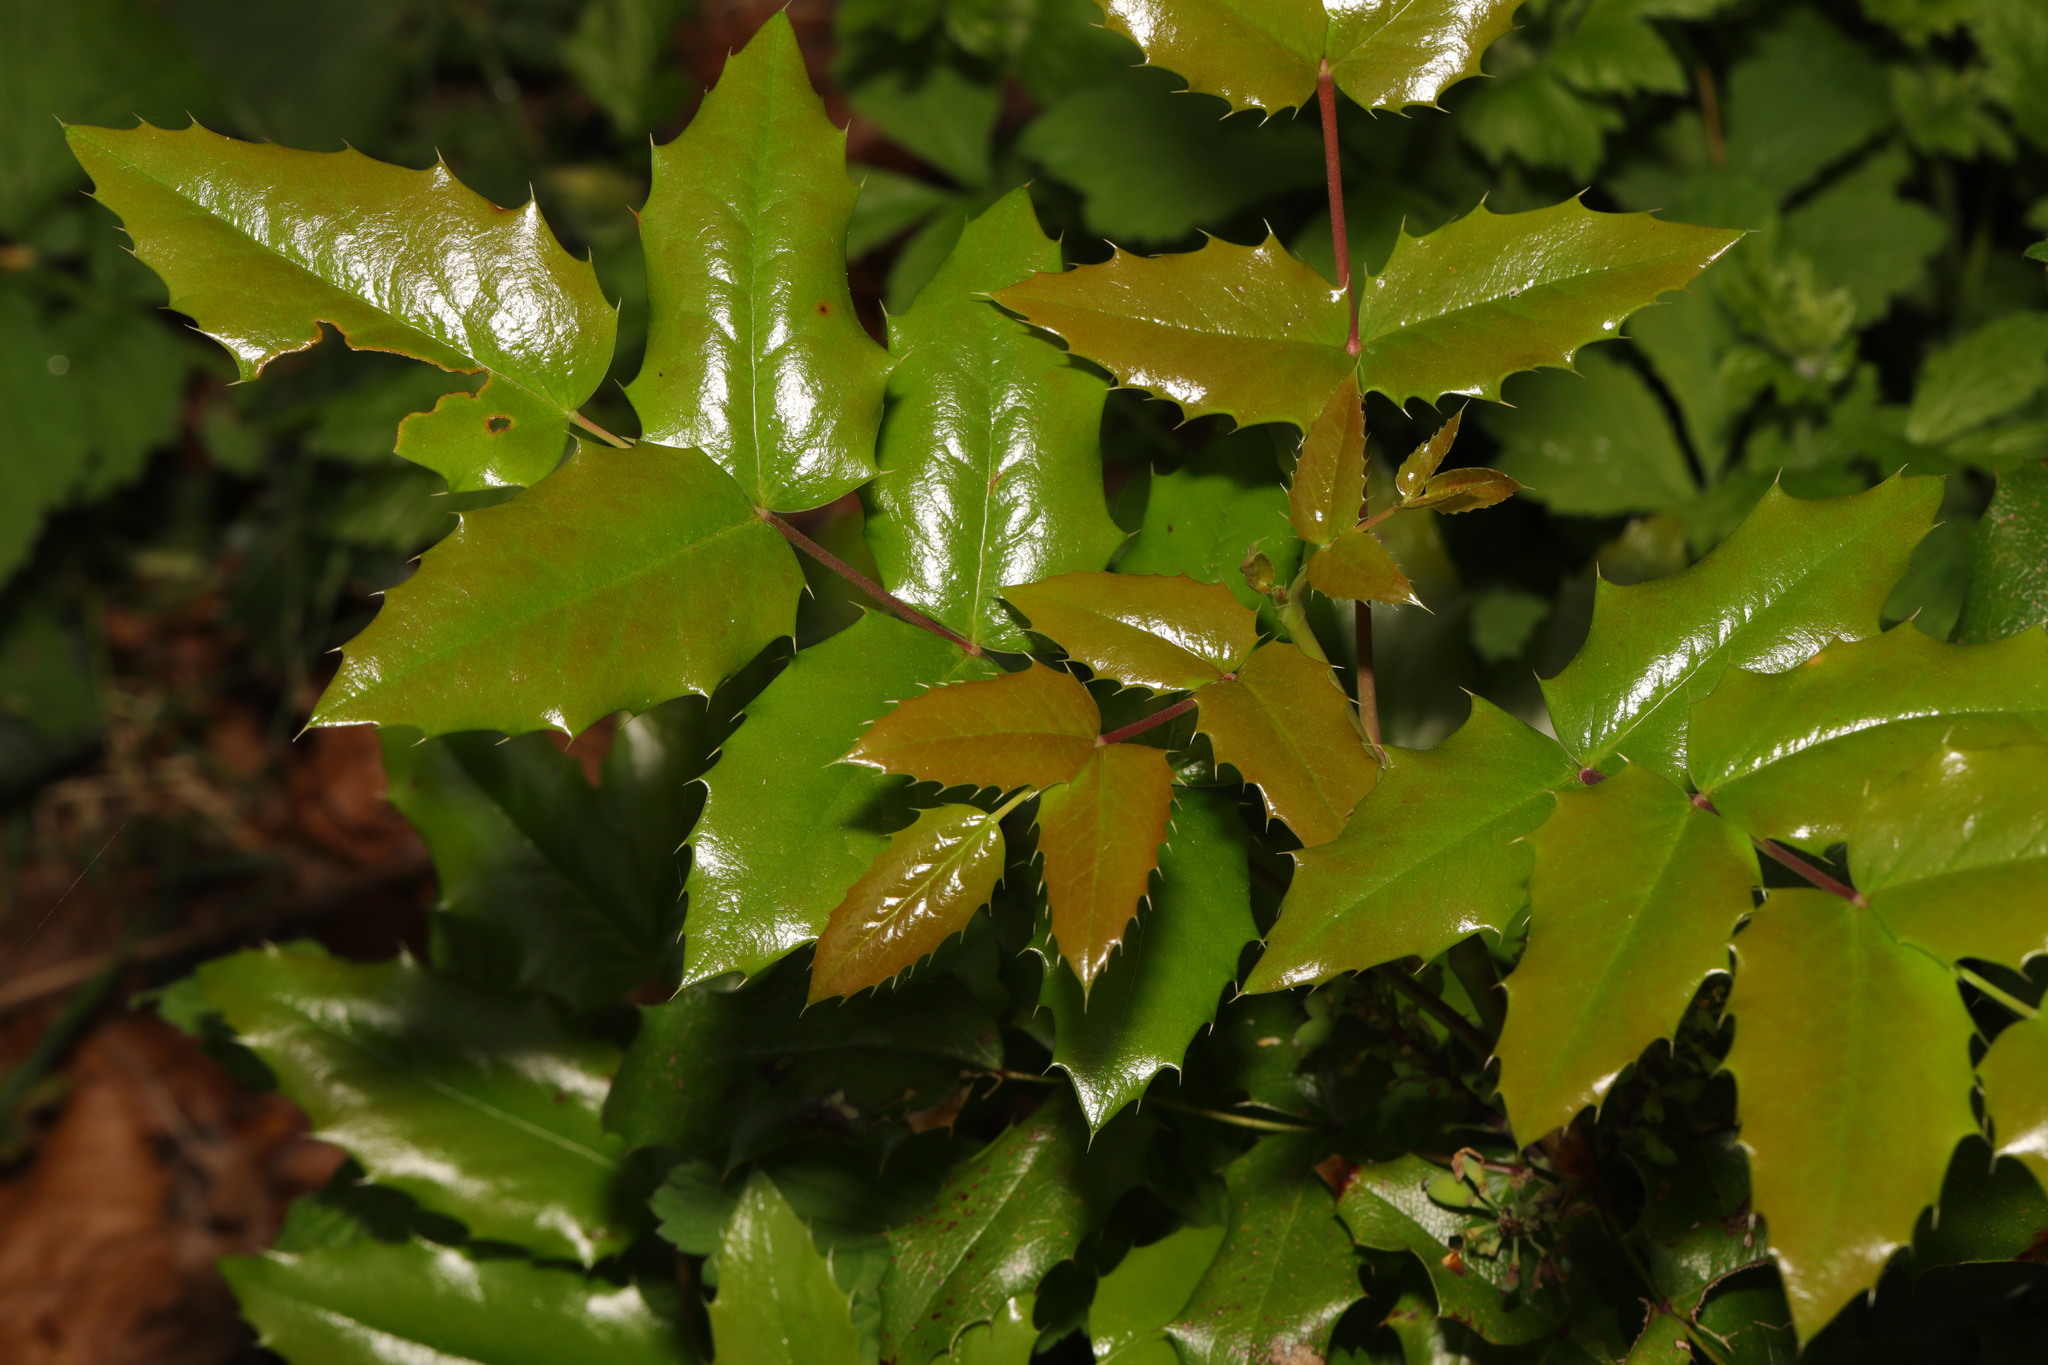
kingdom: Plantae
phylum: Tracheophyta
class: Magnoliopsida
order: Ranunculales
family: Berberidaceae
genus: Mahonia
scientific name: Mahonia aquifolium
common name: Oregon-grape
